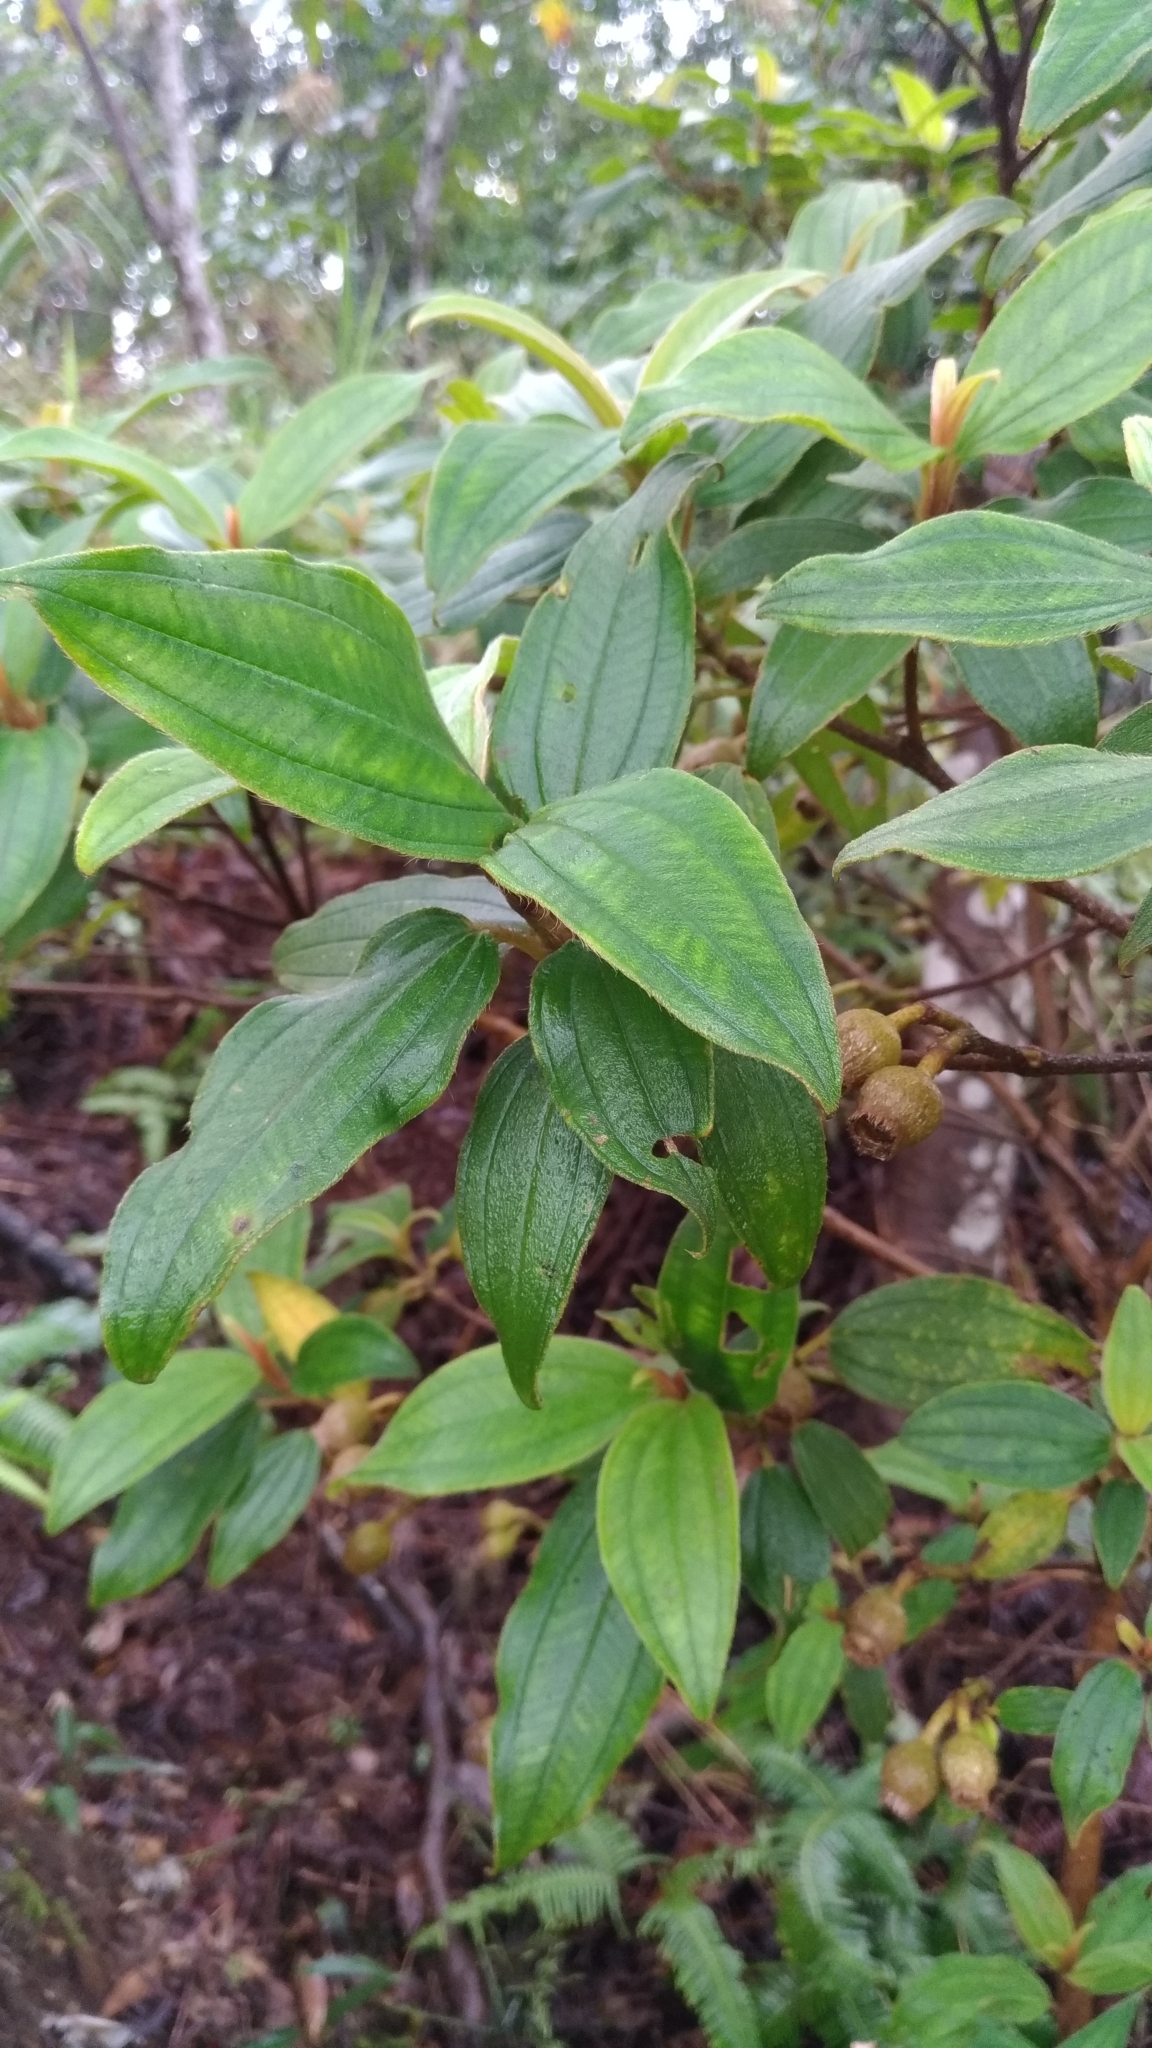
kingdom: Plantae
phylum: Tracheophyta
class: Magnoliopsida
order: Myrtales
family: Melastomataceae
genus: Melastoma
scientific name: Melastoma malabathricum
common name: Indian-rhododendron
